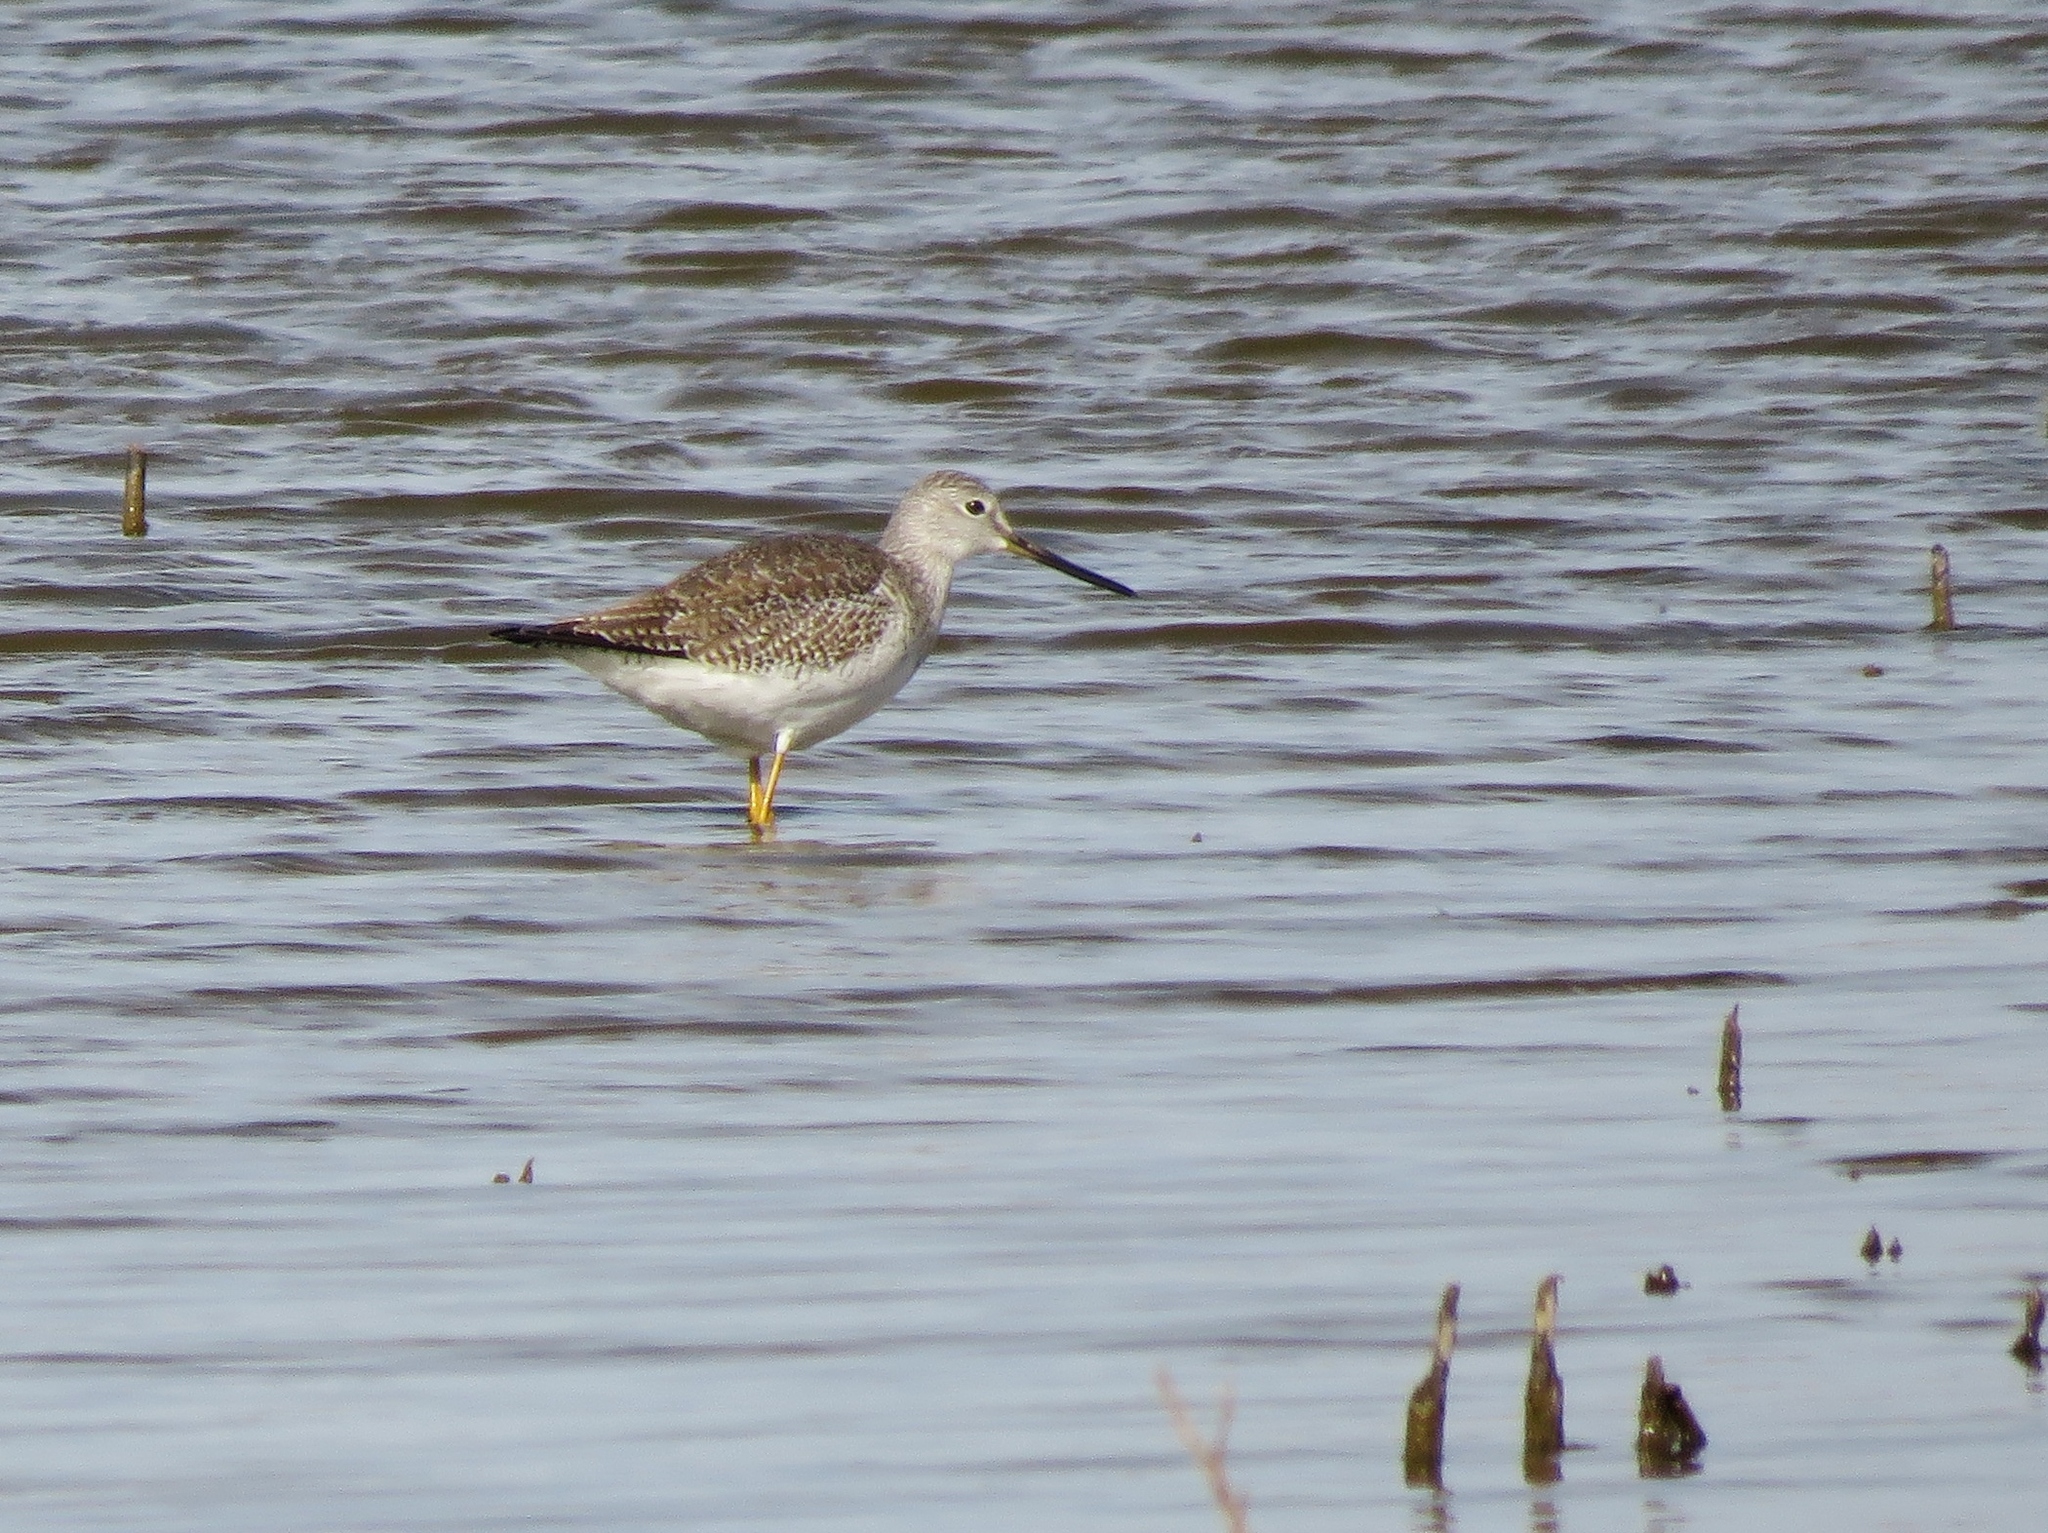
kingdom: Animalia
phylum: Chordata
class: Aves
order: Charadriiformes
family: Scolopacidae
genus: Tringa
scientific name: Tringa melanoleuca
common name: Greater yellowlegs
